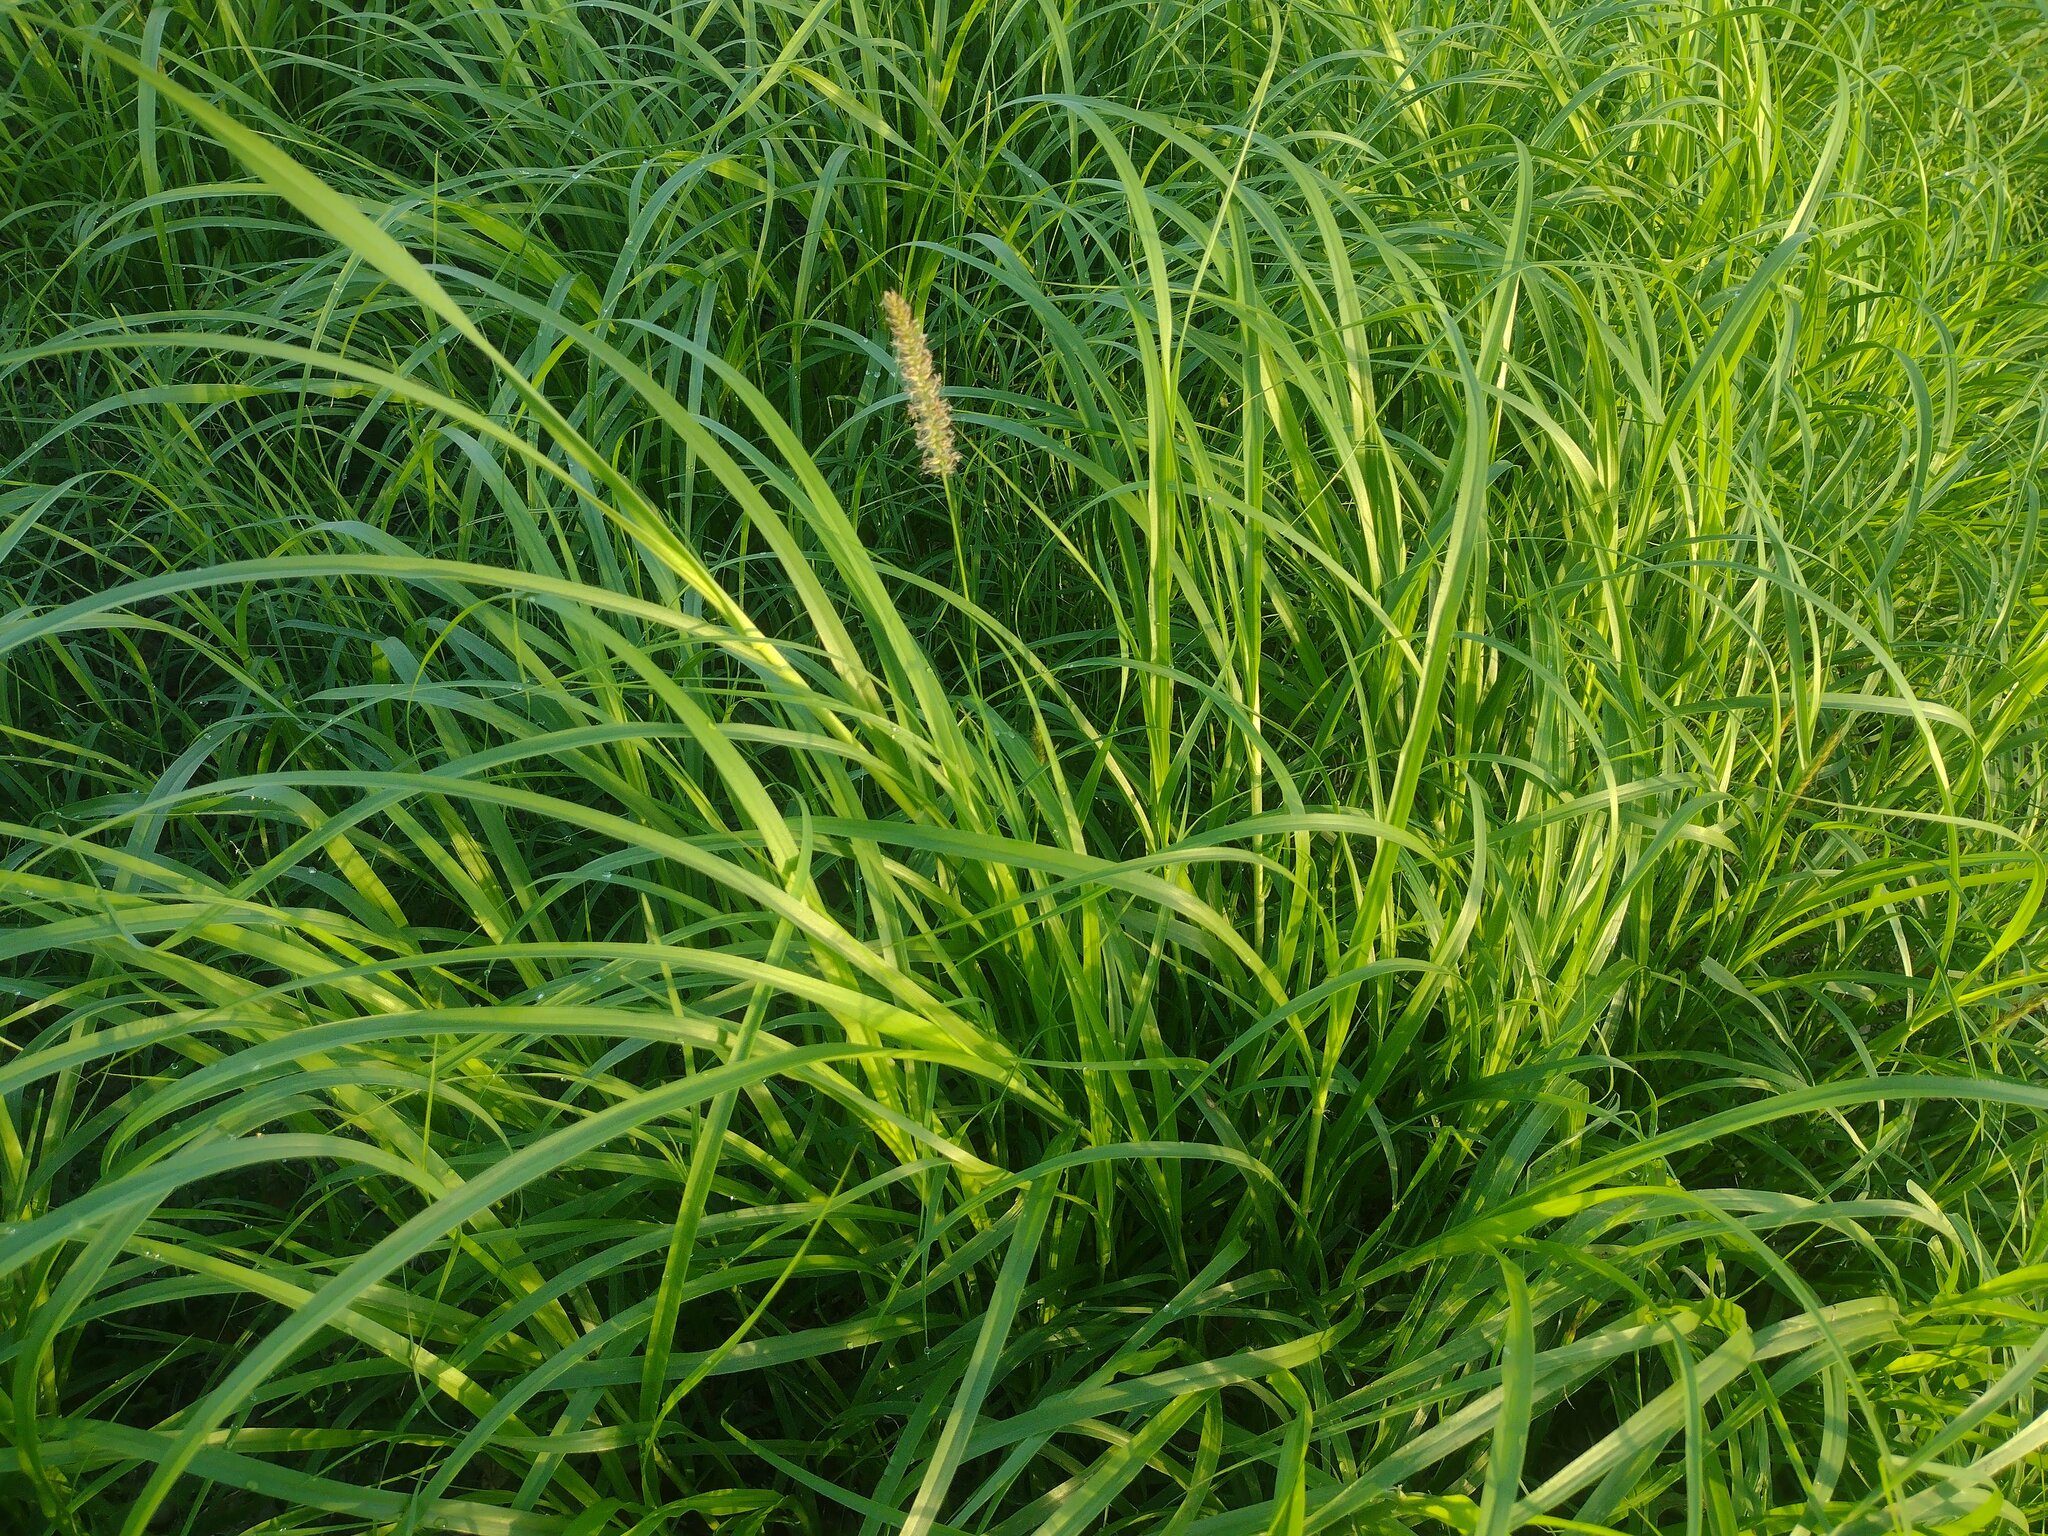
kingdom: Plantae
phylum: Tracheophyta
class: Liliopsida
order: Poales
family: Poaceae
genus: Cenchrus
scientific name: Cenchrus ciliaris
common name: Buffelgrass
